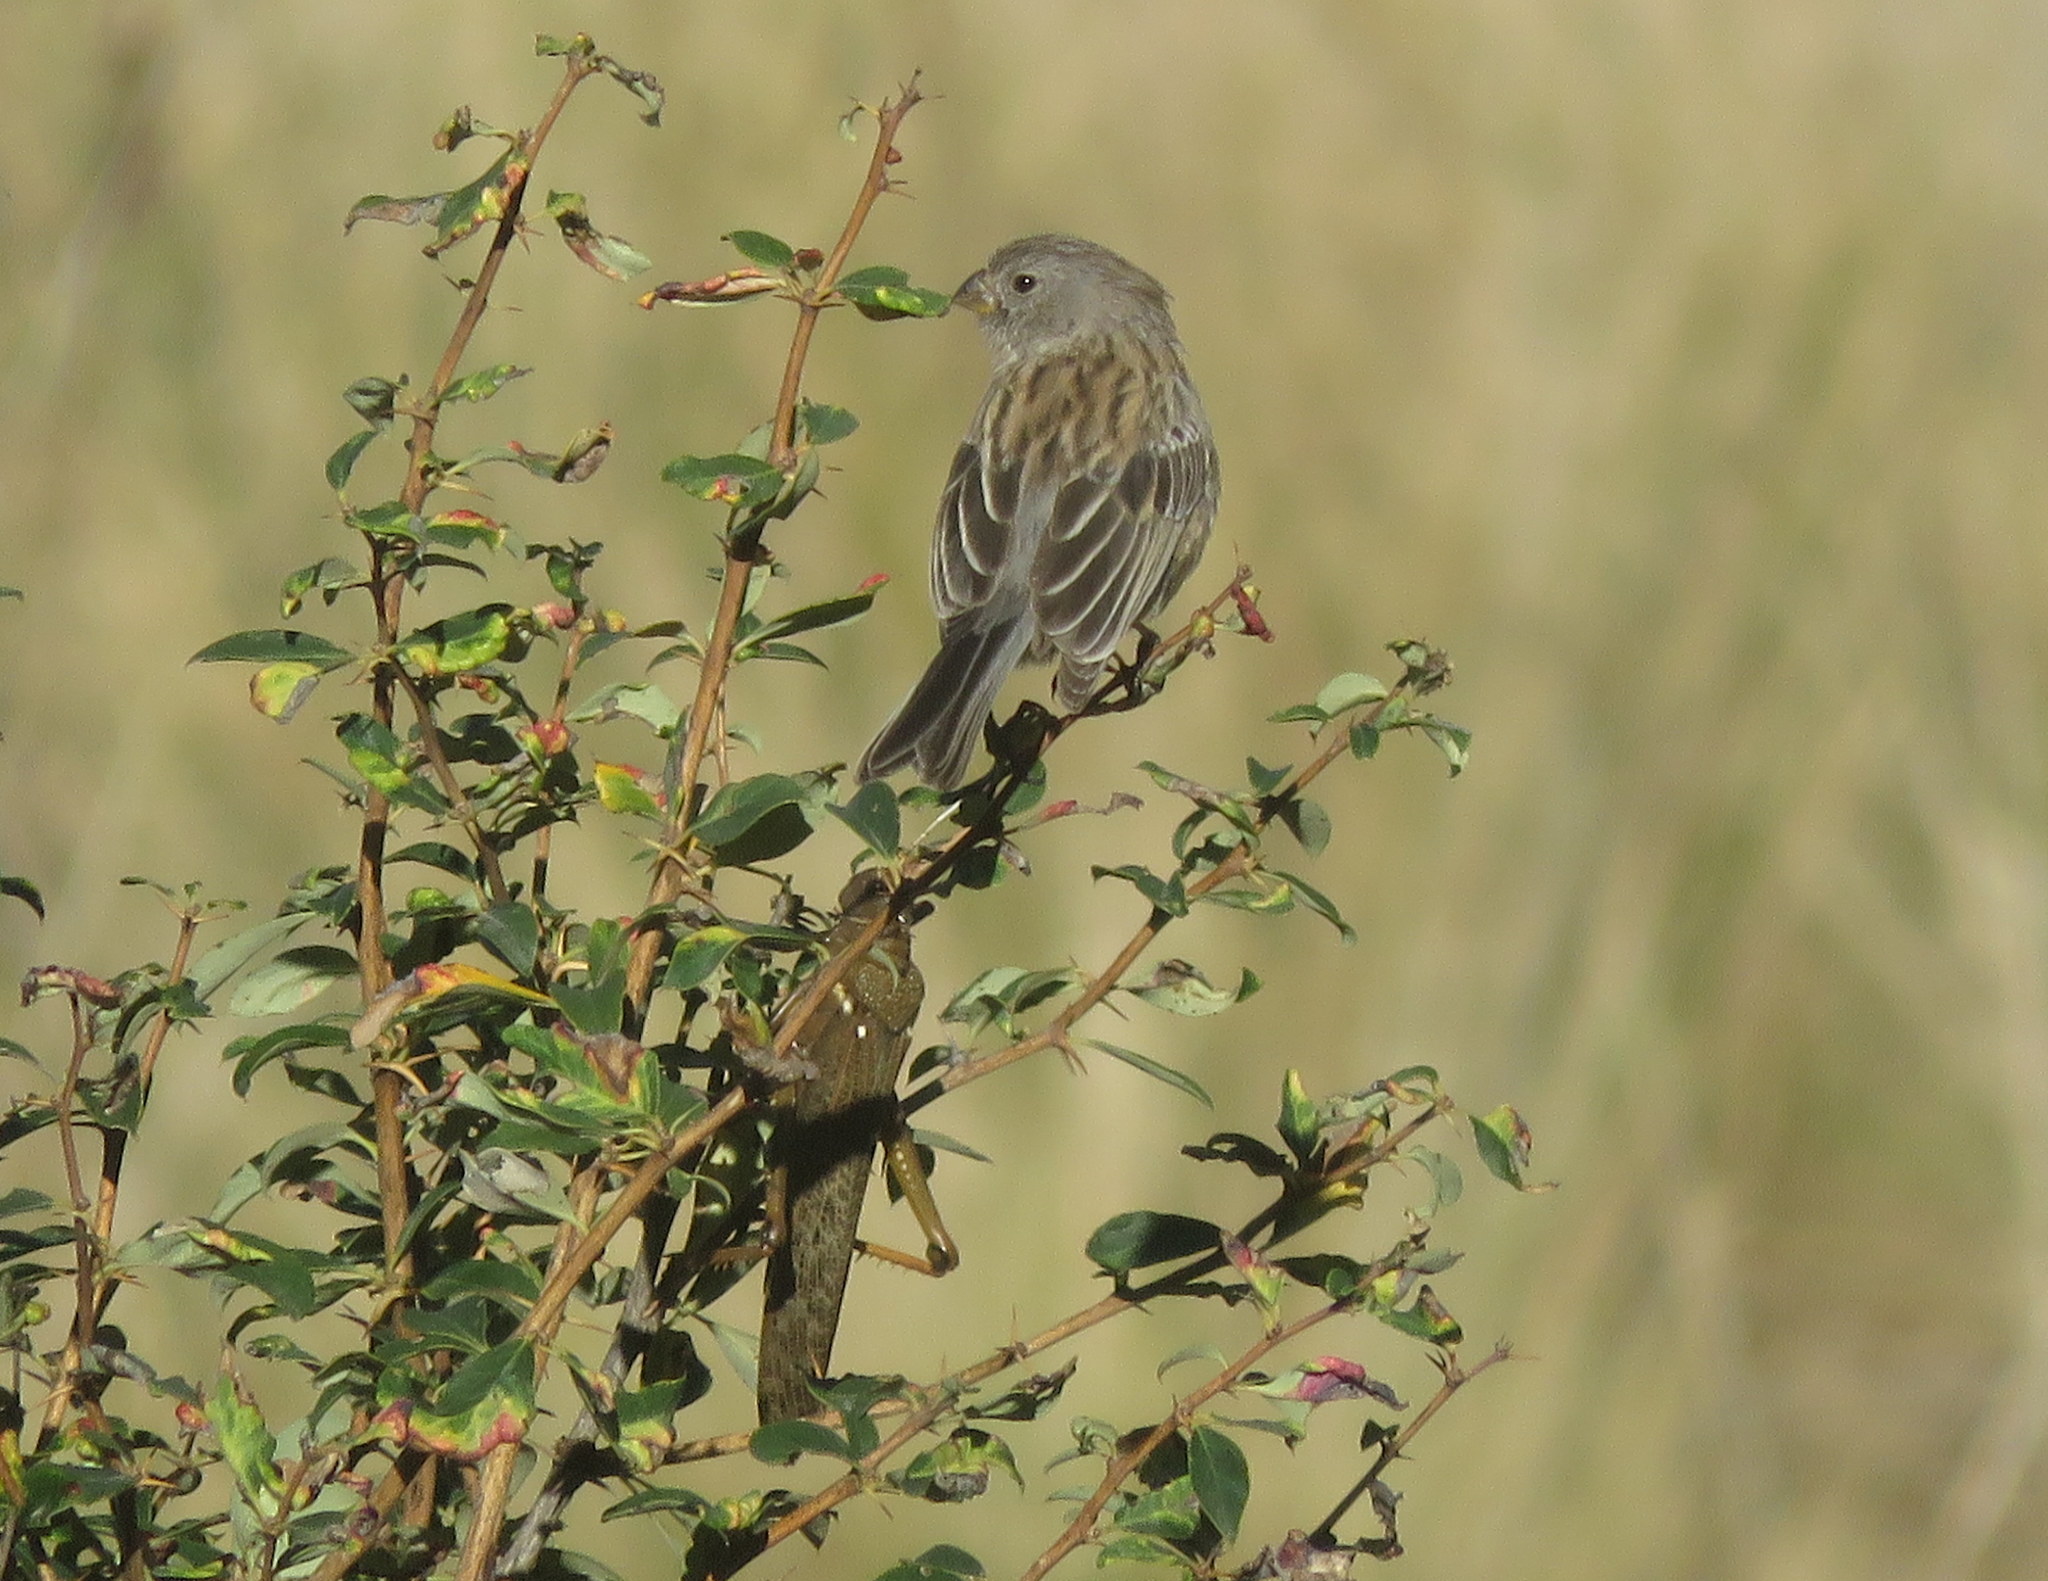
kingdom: Animalia
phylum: Chordata
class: Aves
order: Passeriformes
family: Thraupidae
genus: Catamenia
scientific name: Catamenia inornata
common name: Plain-colored seedeater
